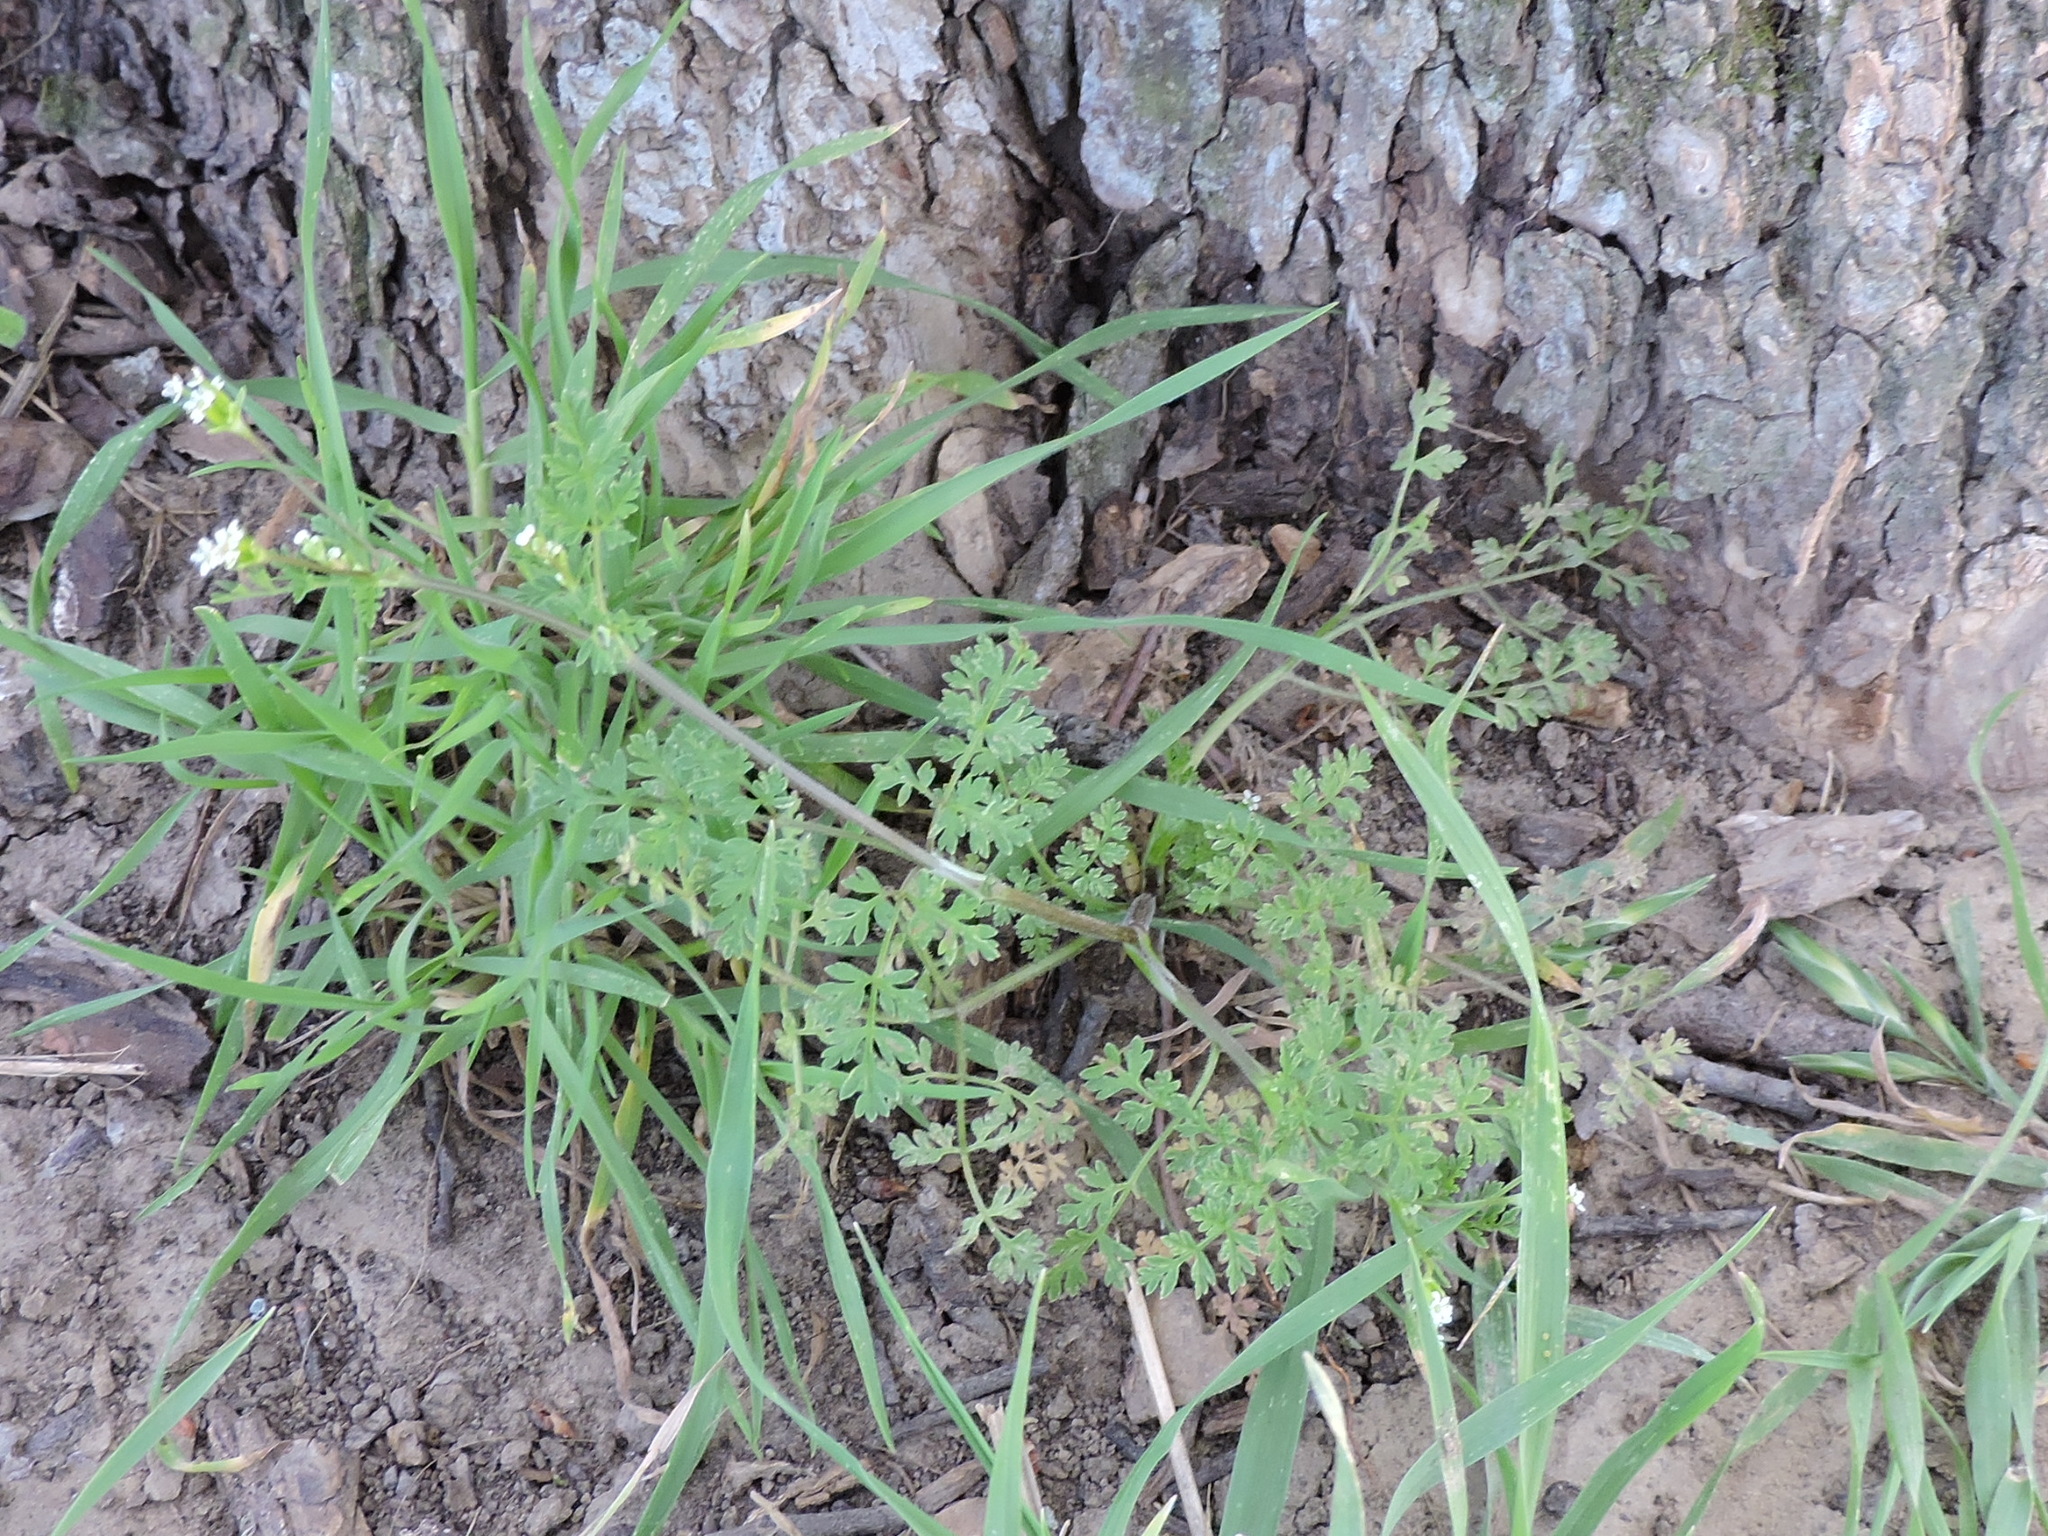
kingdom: Plantae
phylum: Tracheophyta
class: Magnoliopsida
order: Apiales
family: Apiaceae
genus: Chaerophyllum
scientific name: Chaerophyllum tainturieri
